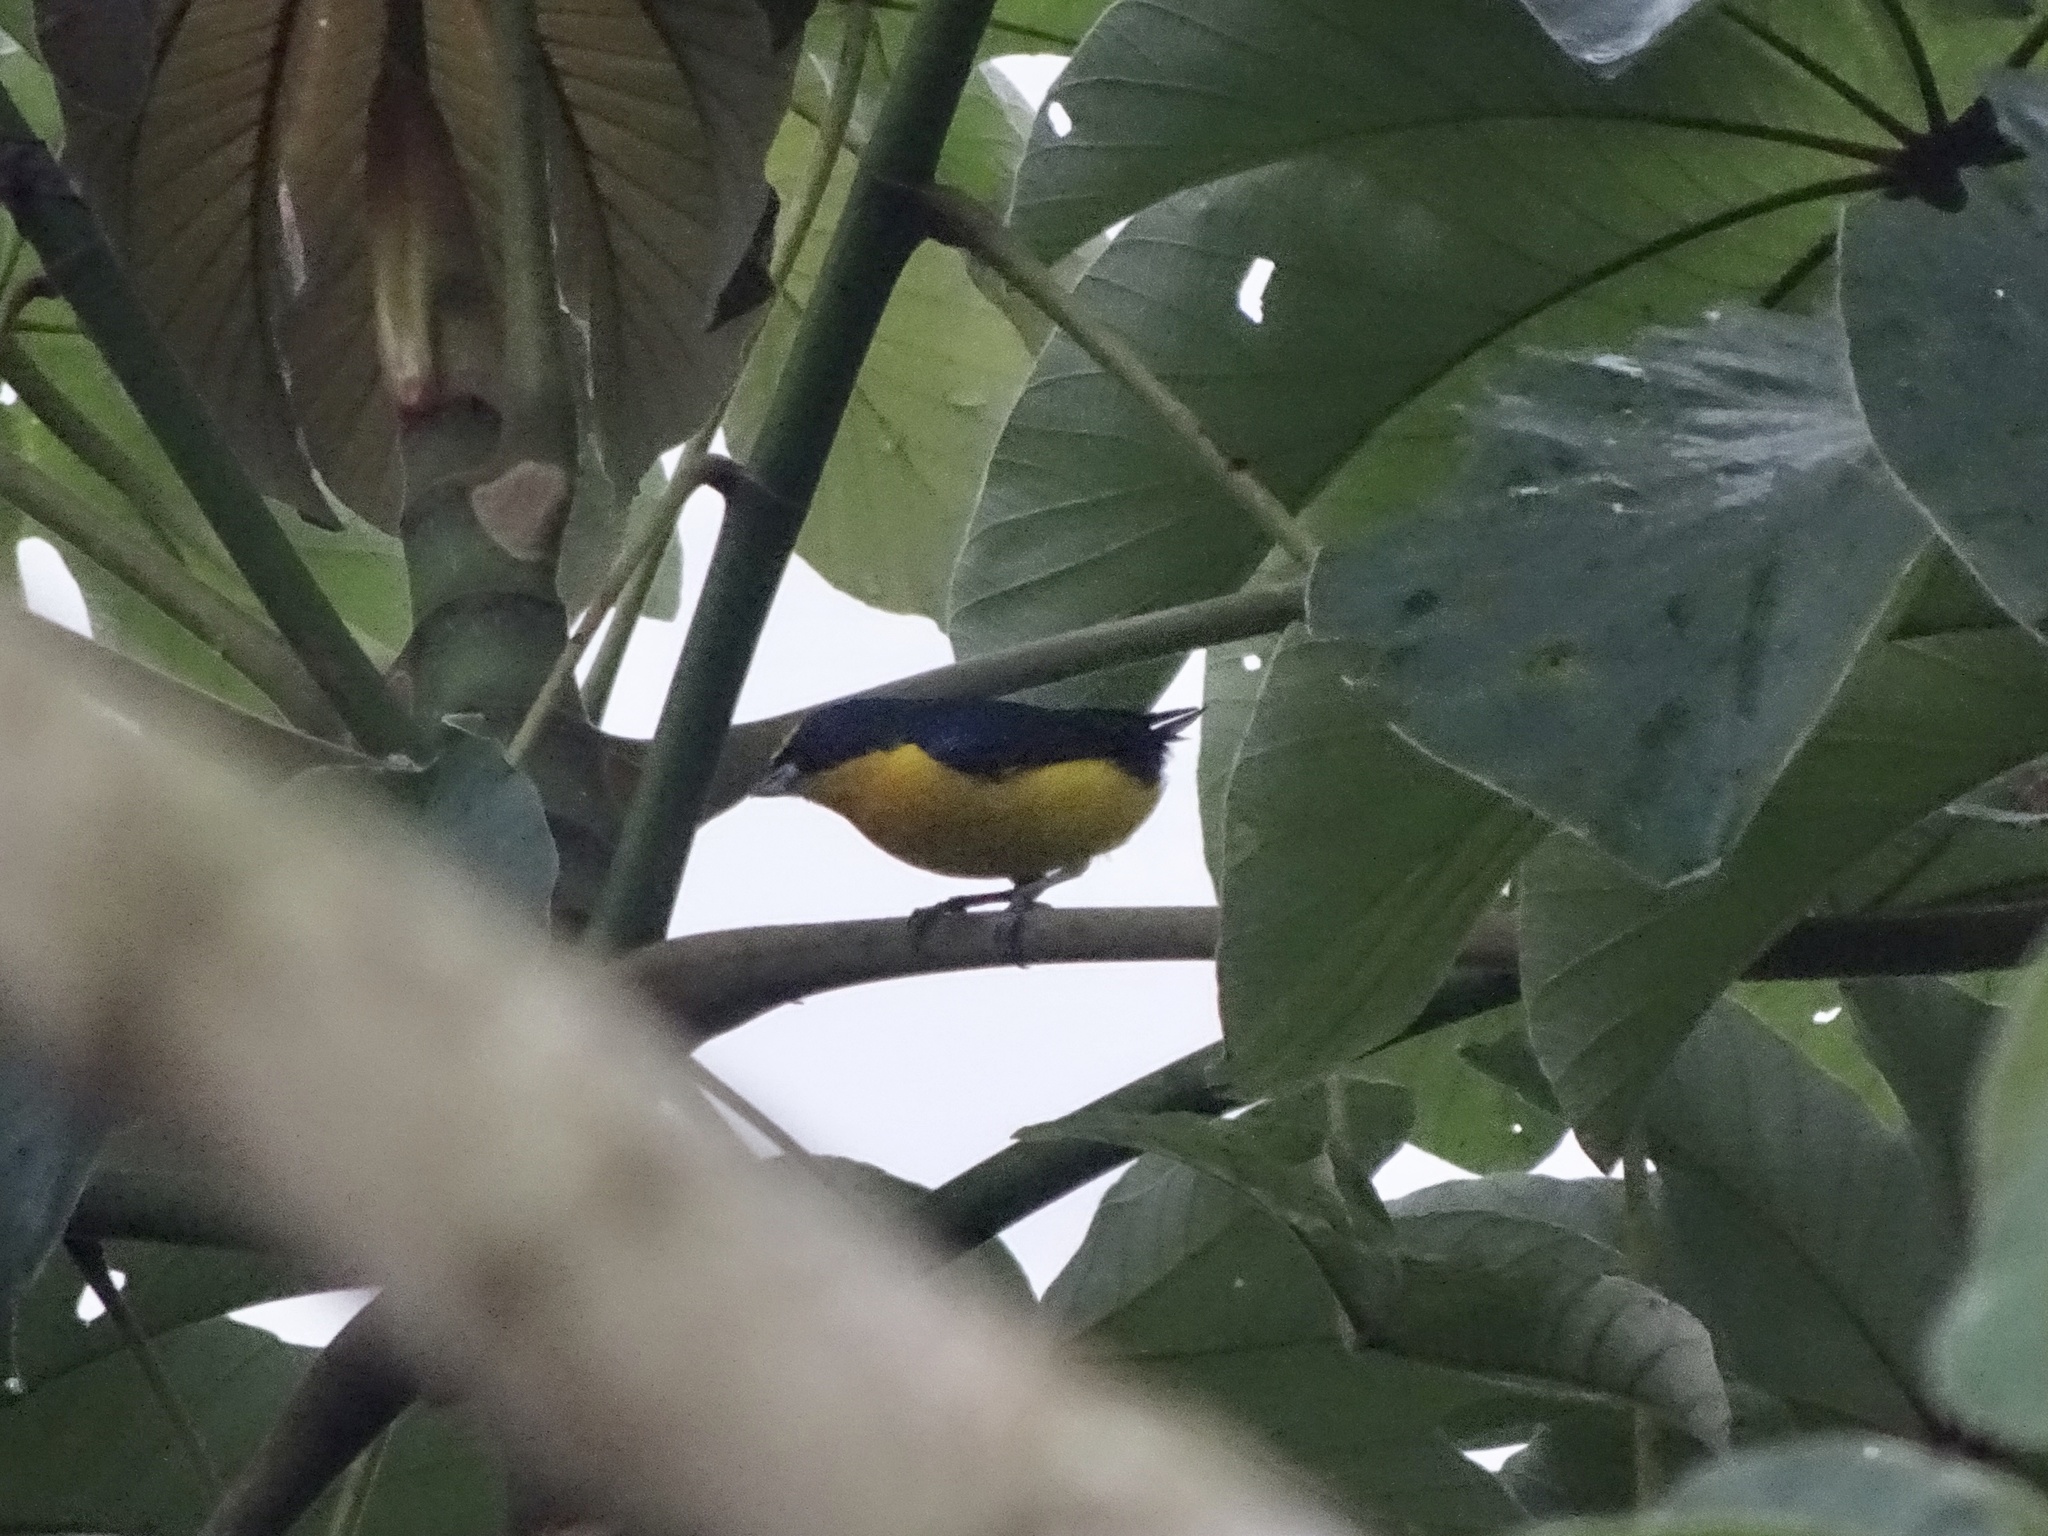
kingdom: Animalia
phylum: Chordata
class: Aves
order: Passeriformes
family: Fringillidae
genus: Euphonia
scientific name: Euphonia laniirostris
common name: Thick-billed euphonia
